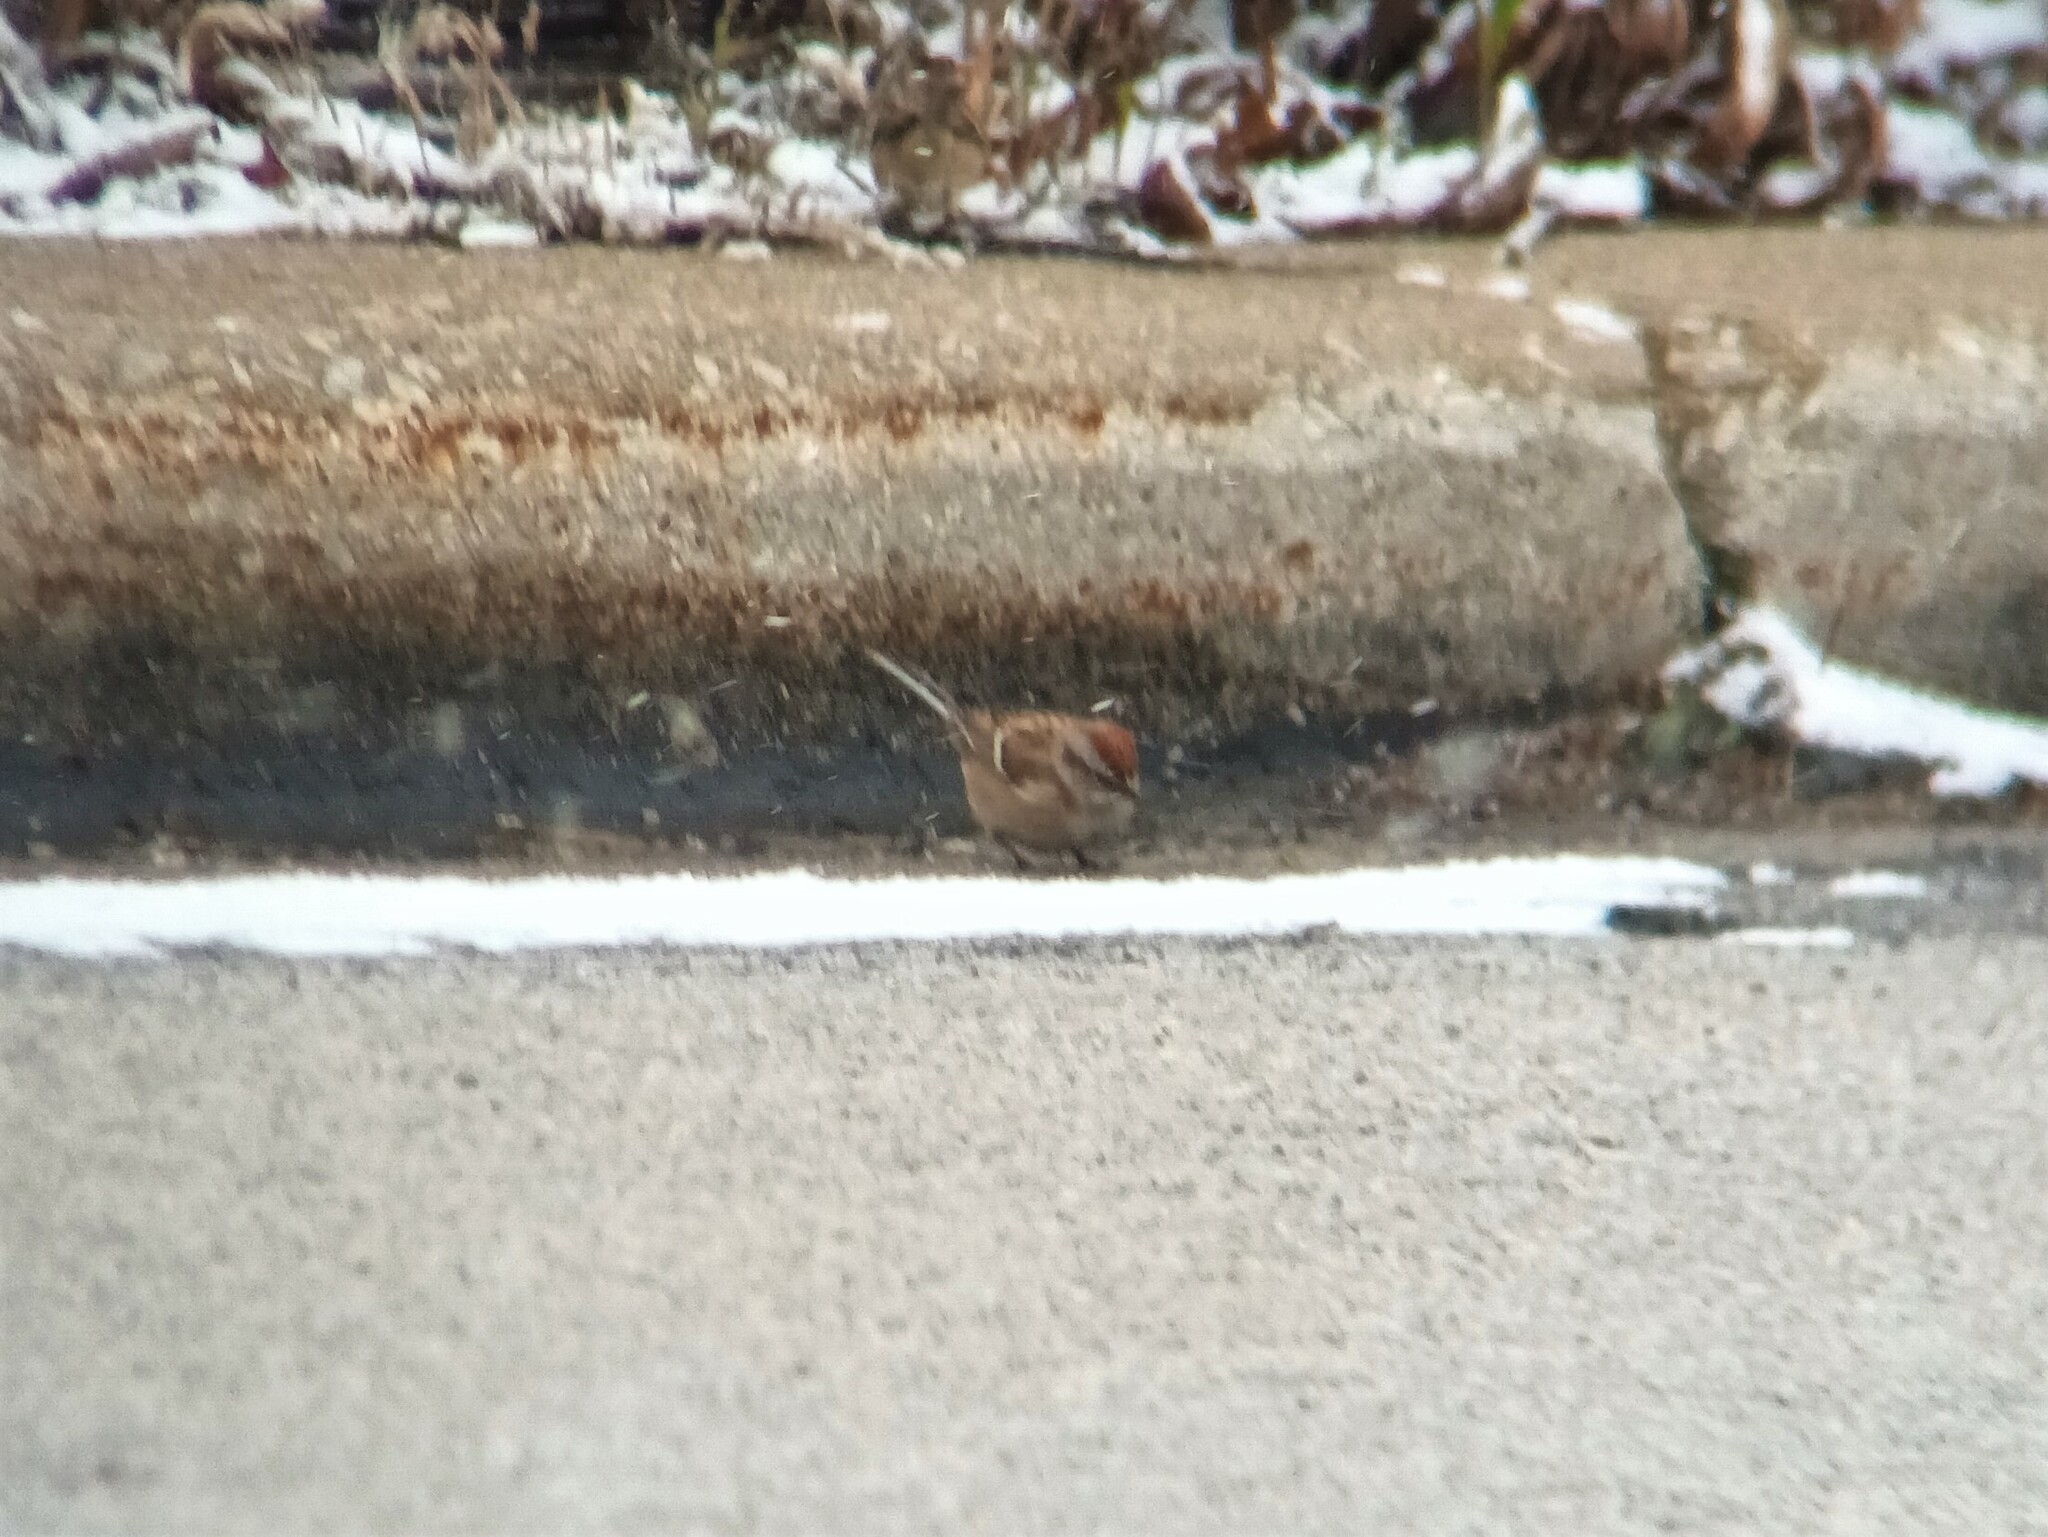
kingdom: Animalia
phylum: Chordata
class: Aves
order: Passeriformes
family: Passerellidae
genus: Spizelloides
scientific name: Spizelloides arborea
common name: American tree sparrow
